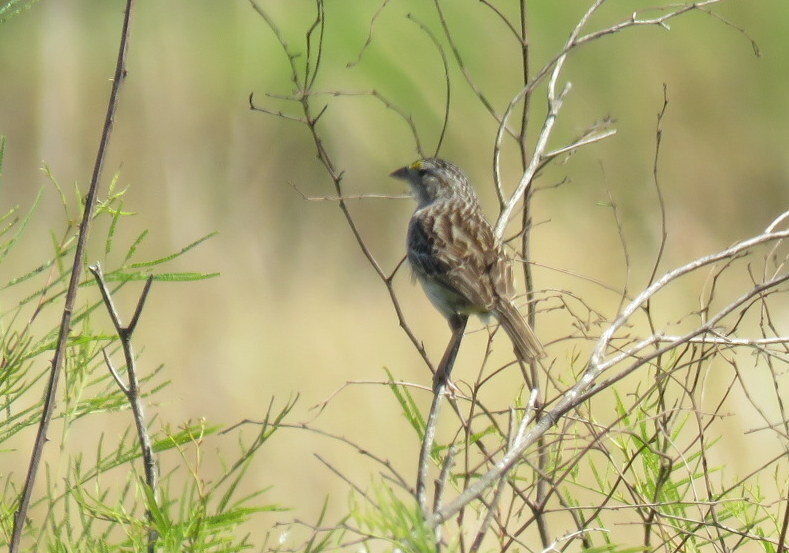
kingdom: Animalia
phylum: Chordata
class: Aves
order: Passeriformes
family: Passerellidae
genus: Ammodramus
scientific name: Ammodramus humeralis
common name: Grassland sparrow
